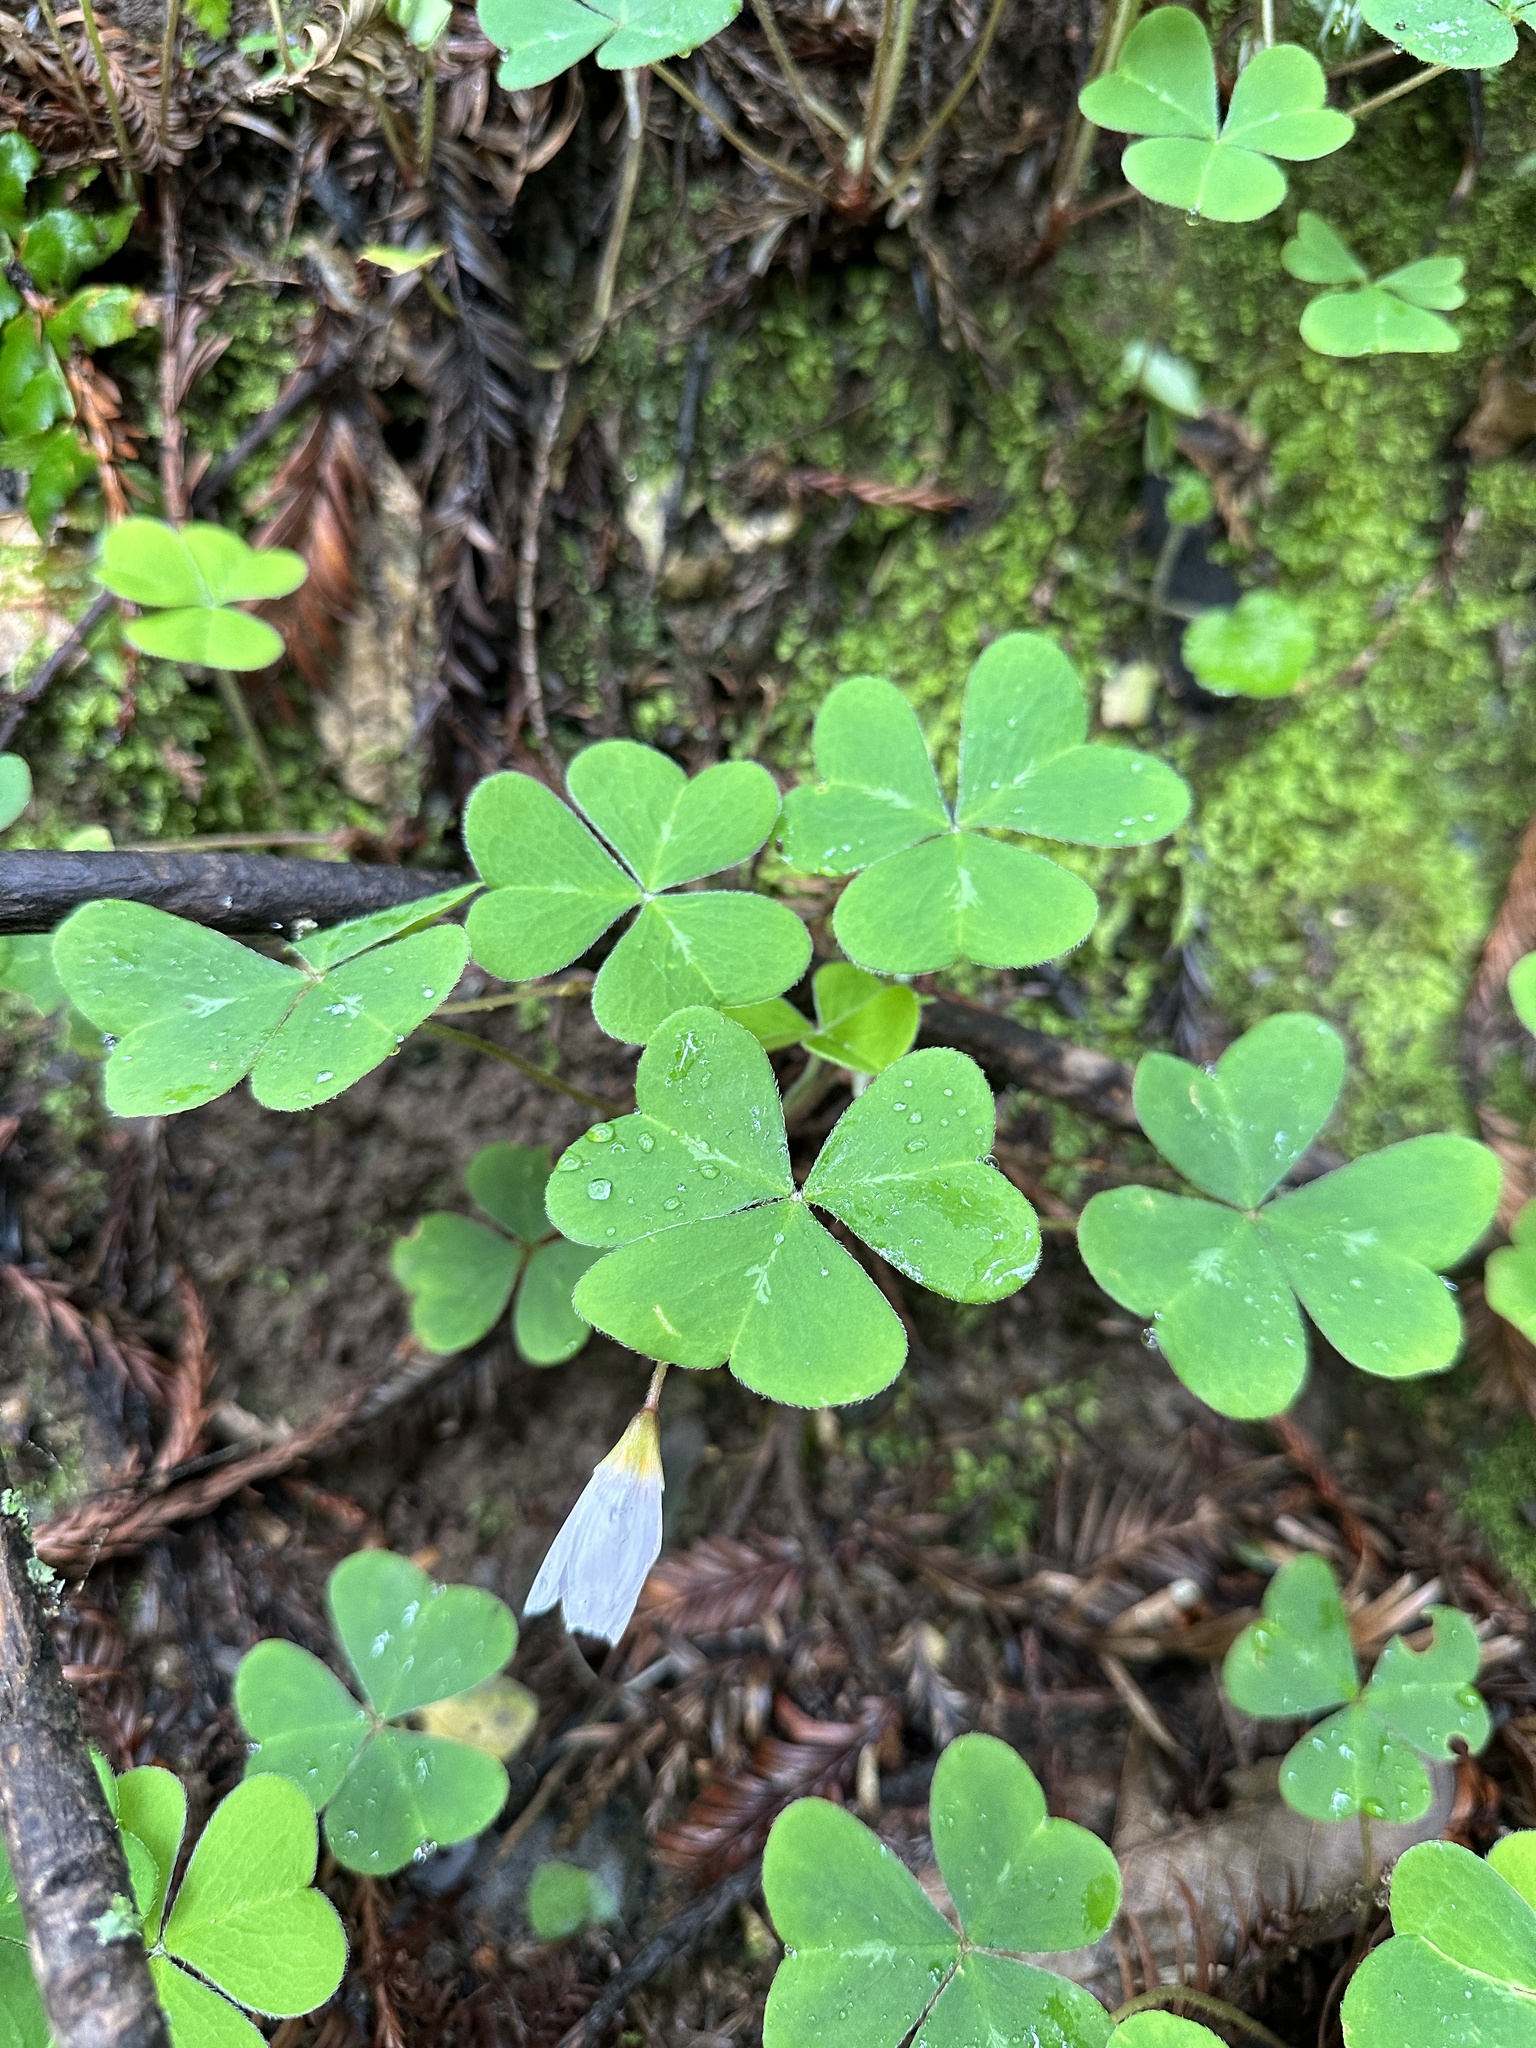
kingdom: Plantae
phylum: Tracheophyta
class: Magnoliopsida
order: Oxalidales
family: Oxalidaceae
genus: Oxalis
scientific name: Oxalis oregana
